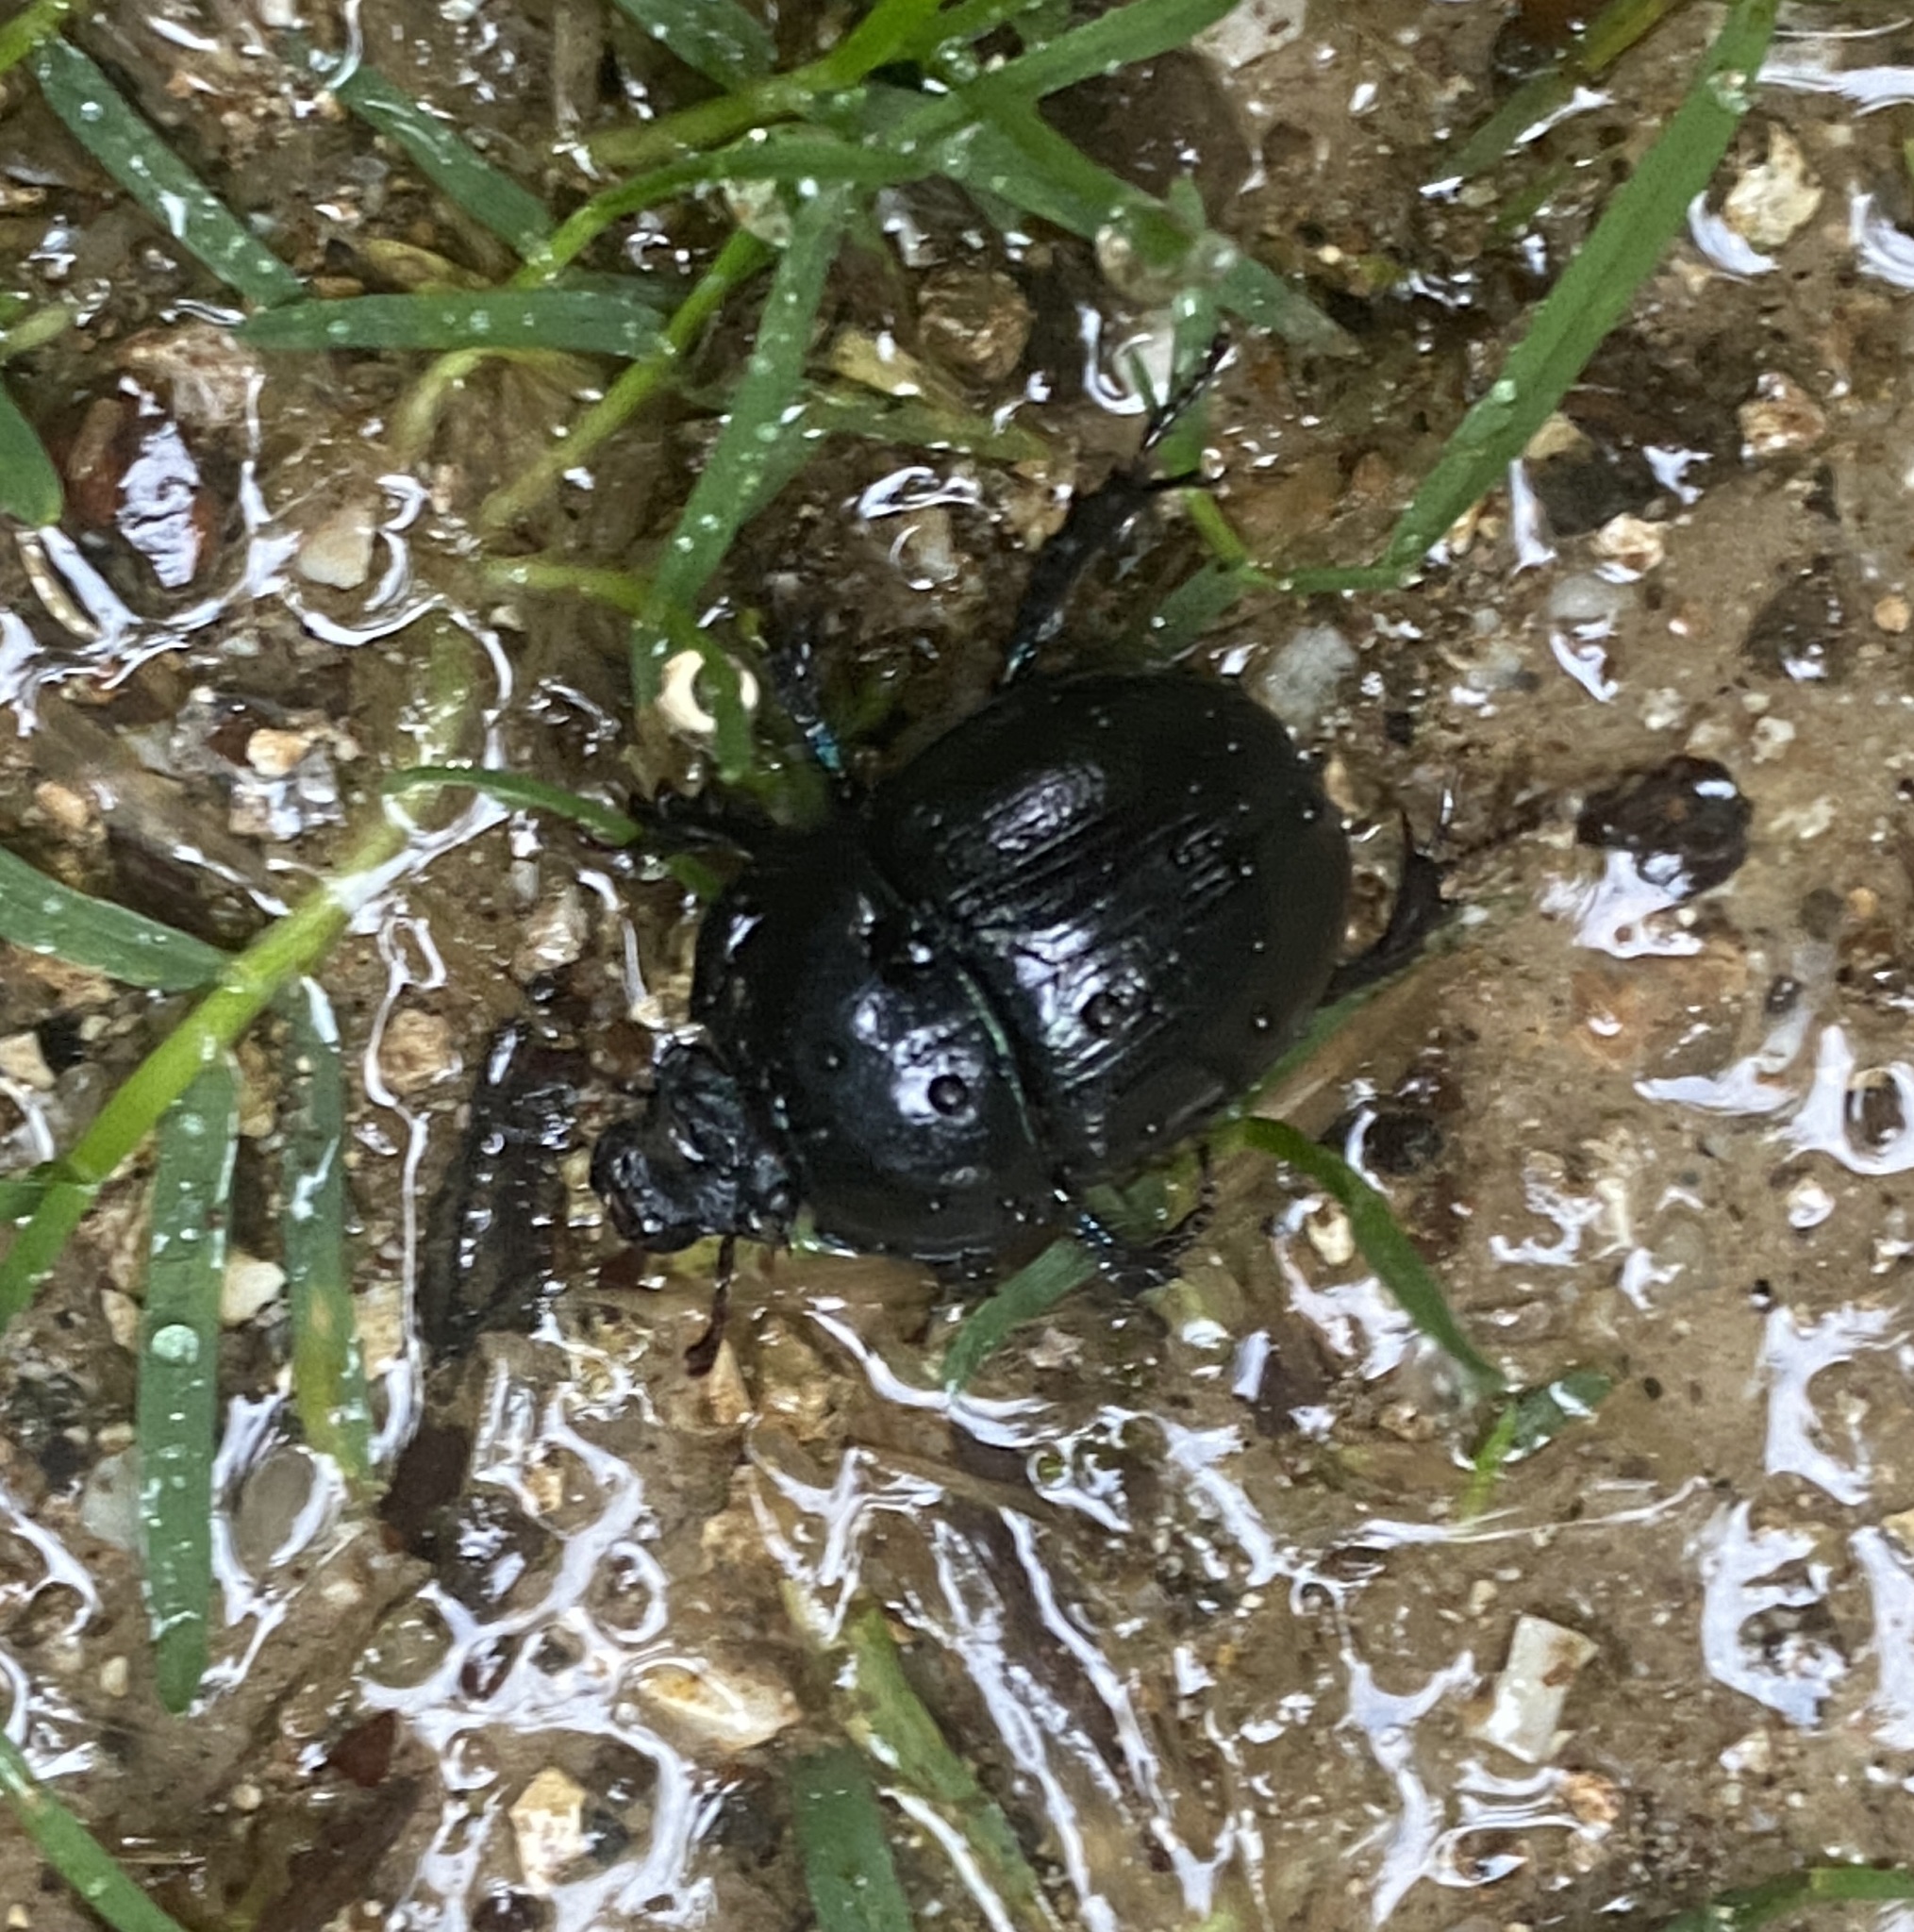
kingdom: Animalia
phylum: Arthropoda
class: Insecta
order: Coleoptera
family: Geotrupidae
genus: Anoplotrupes
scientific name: Anoplotrupes stercorosus
